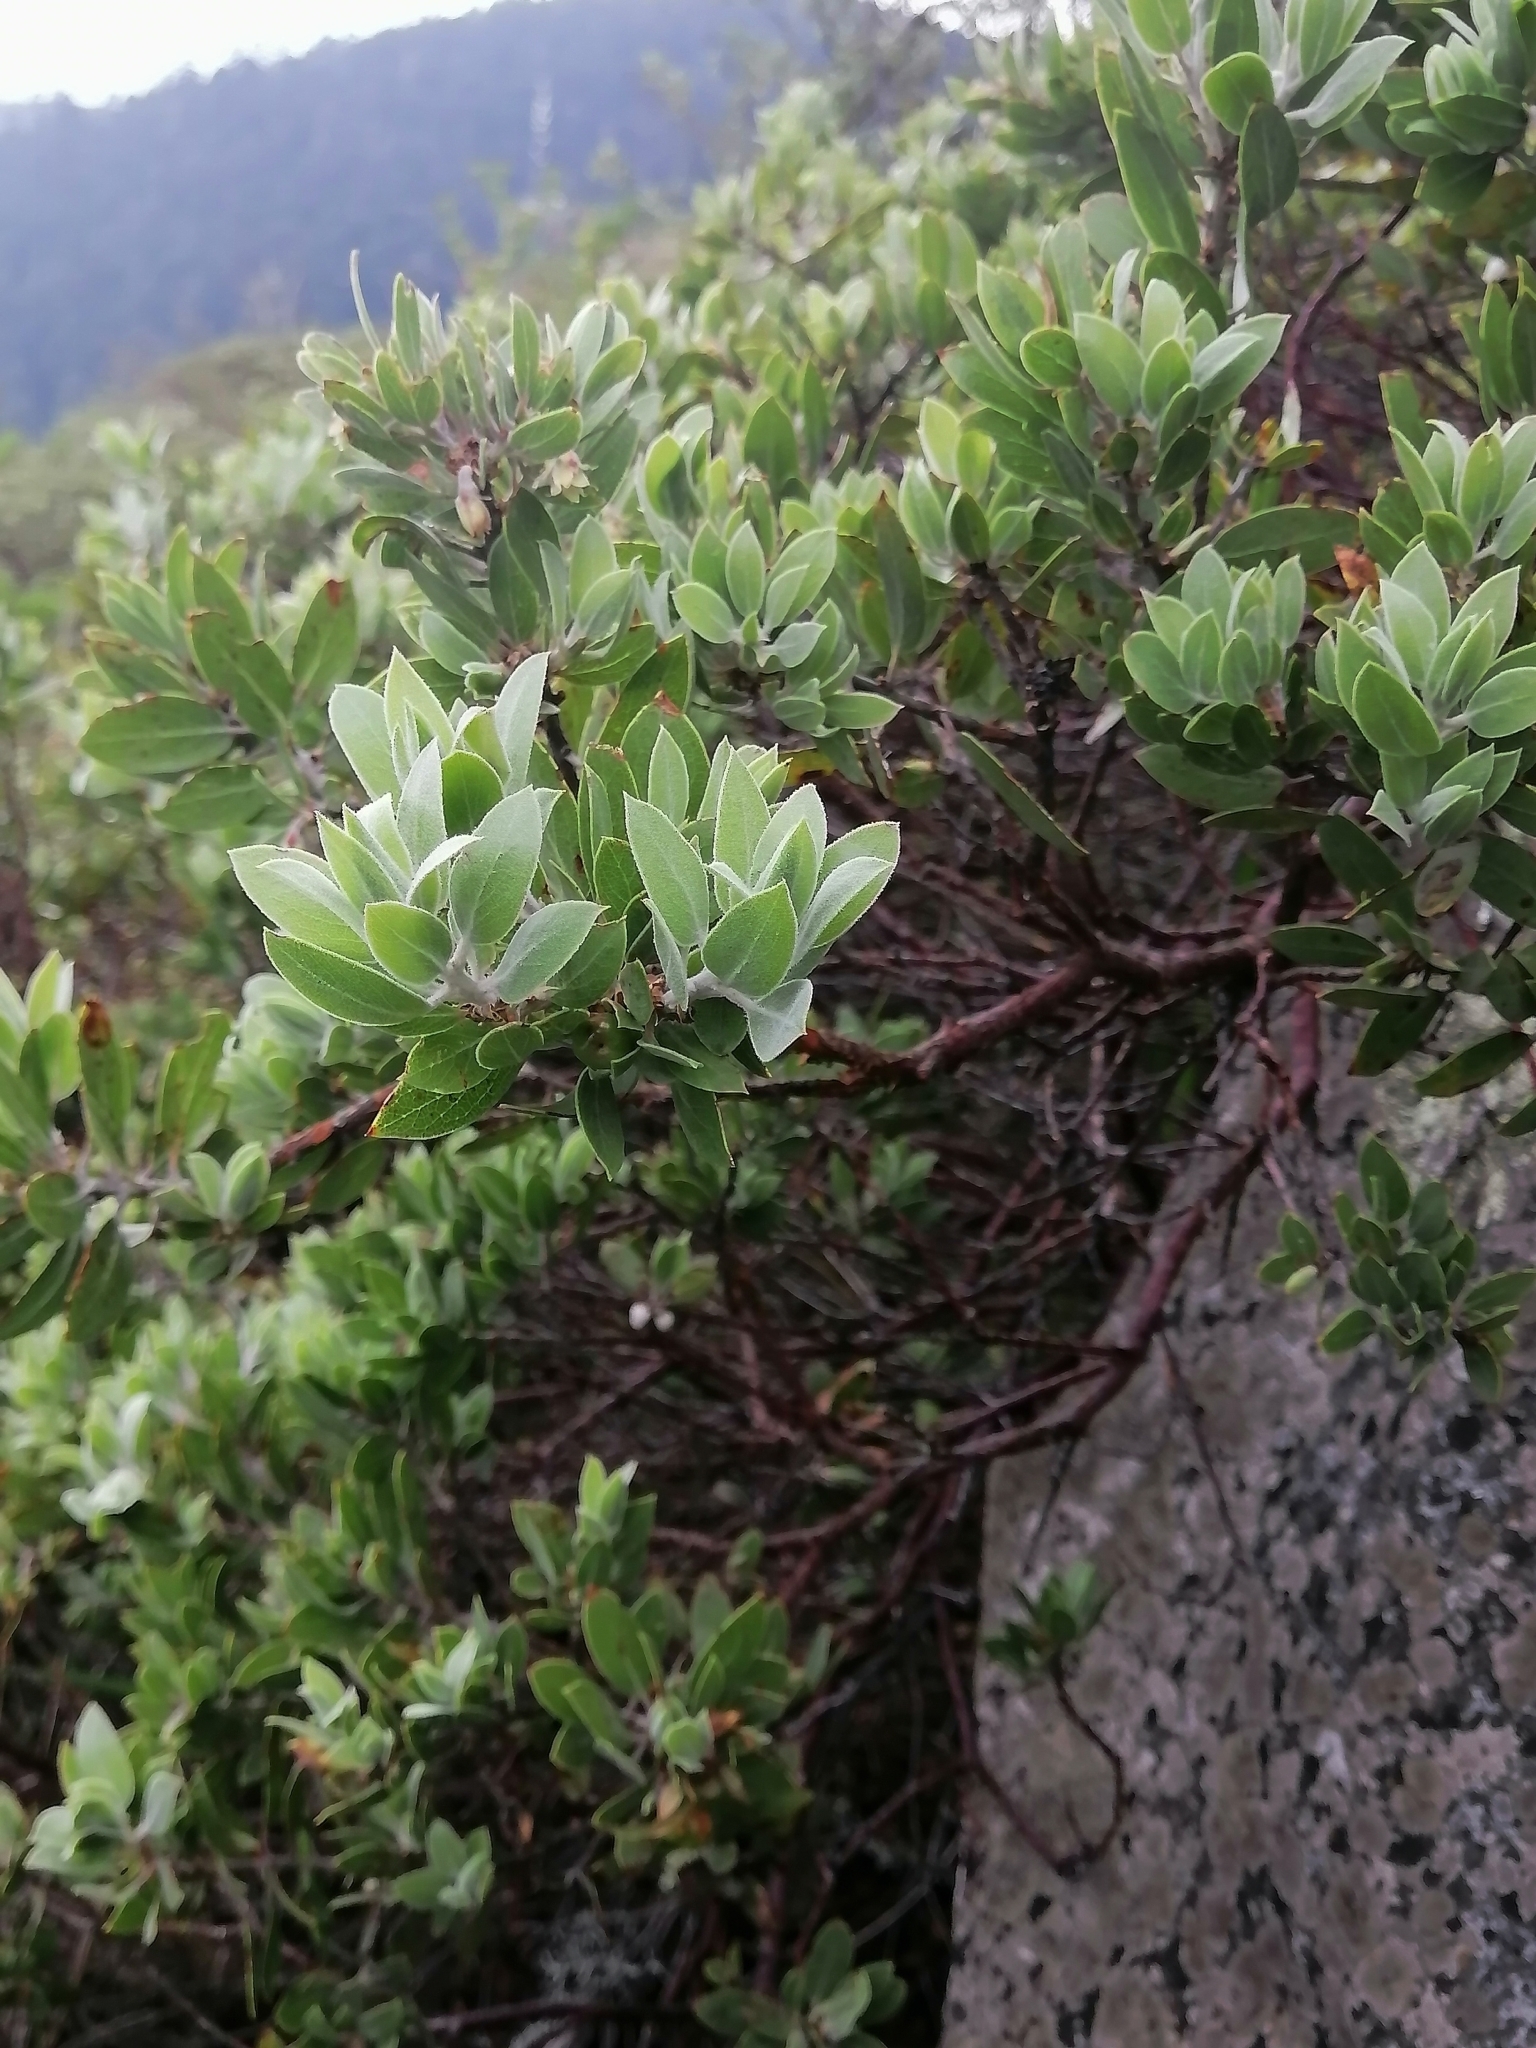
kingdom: Plantae
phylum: Tracheophyta
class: Magnoliopsida
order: Ericales
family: Ericaceae
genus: Arctostaphylos
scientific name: Arctostaphylos pungens
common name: Mexican manzanita
